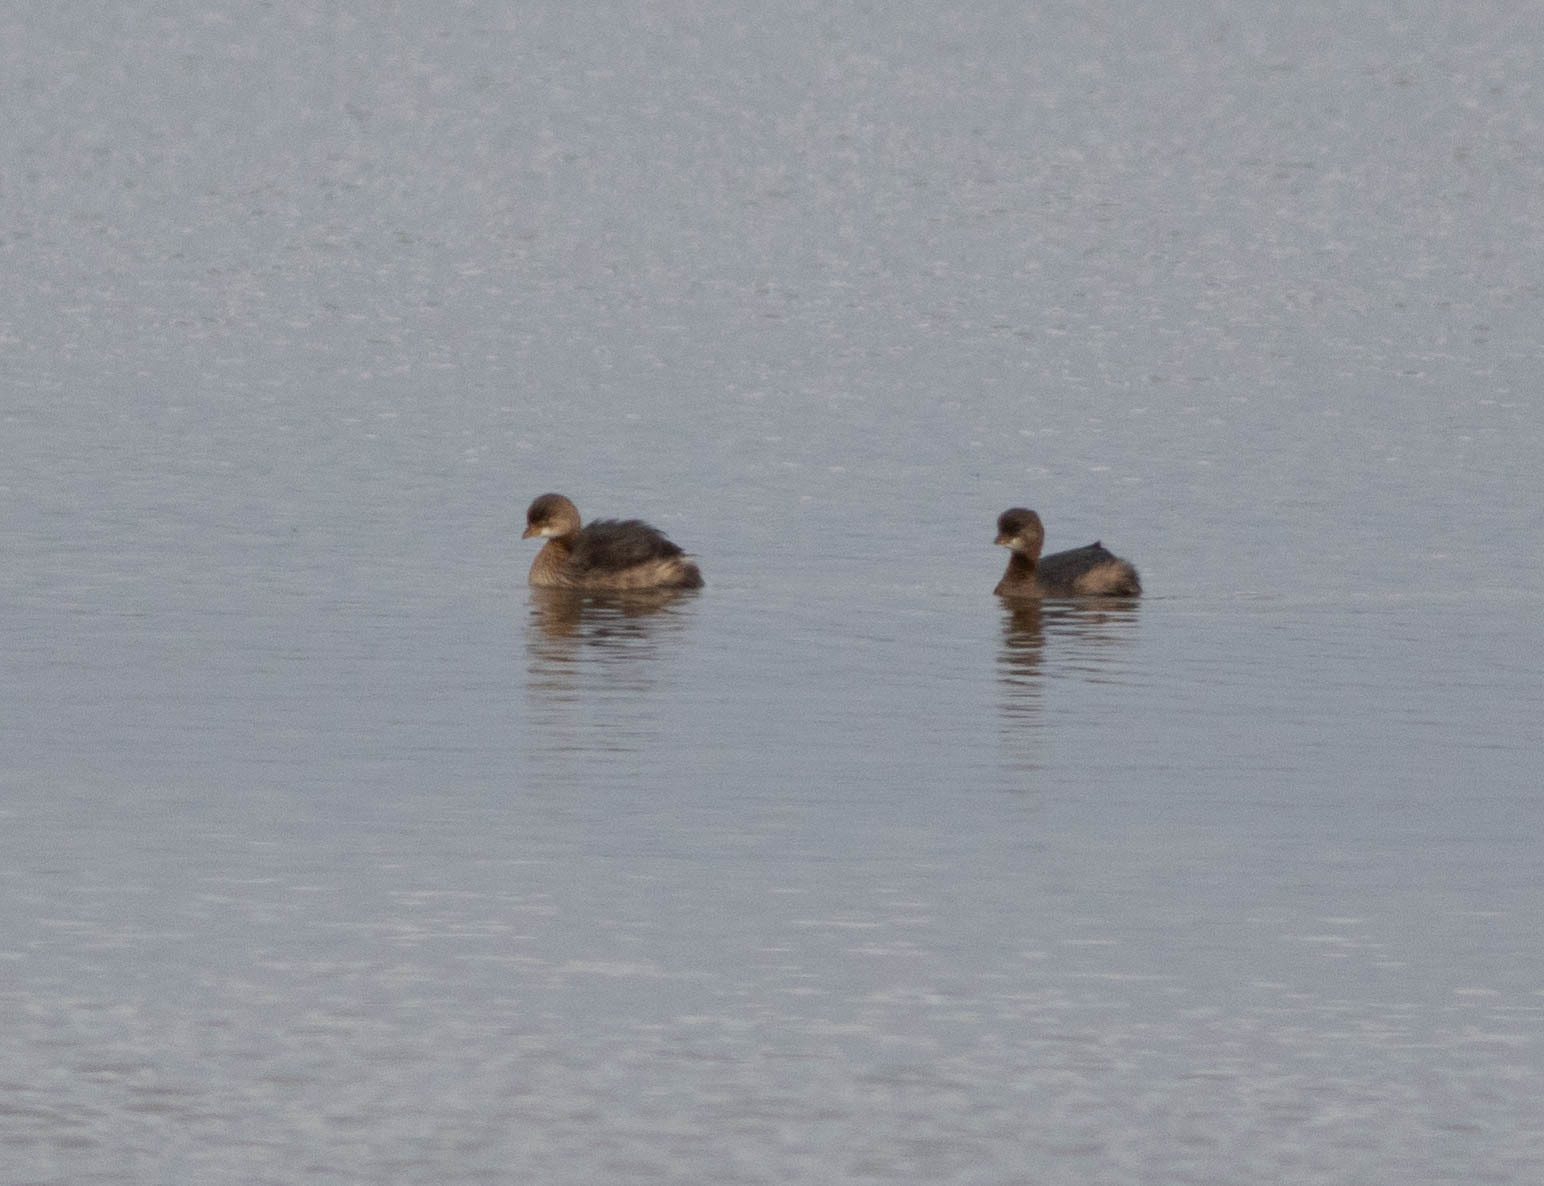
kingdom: Animalia
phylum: Chordata
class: Aves
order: Podicipediformes
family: Podicipedidae
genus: Podilymbus
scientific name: Podilymbus podiceps
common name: Pied-billed grebe
